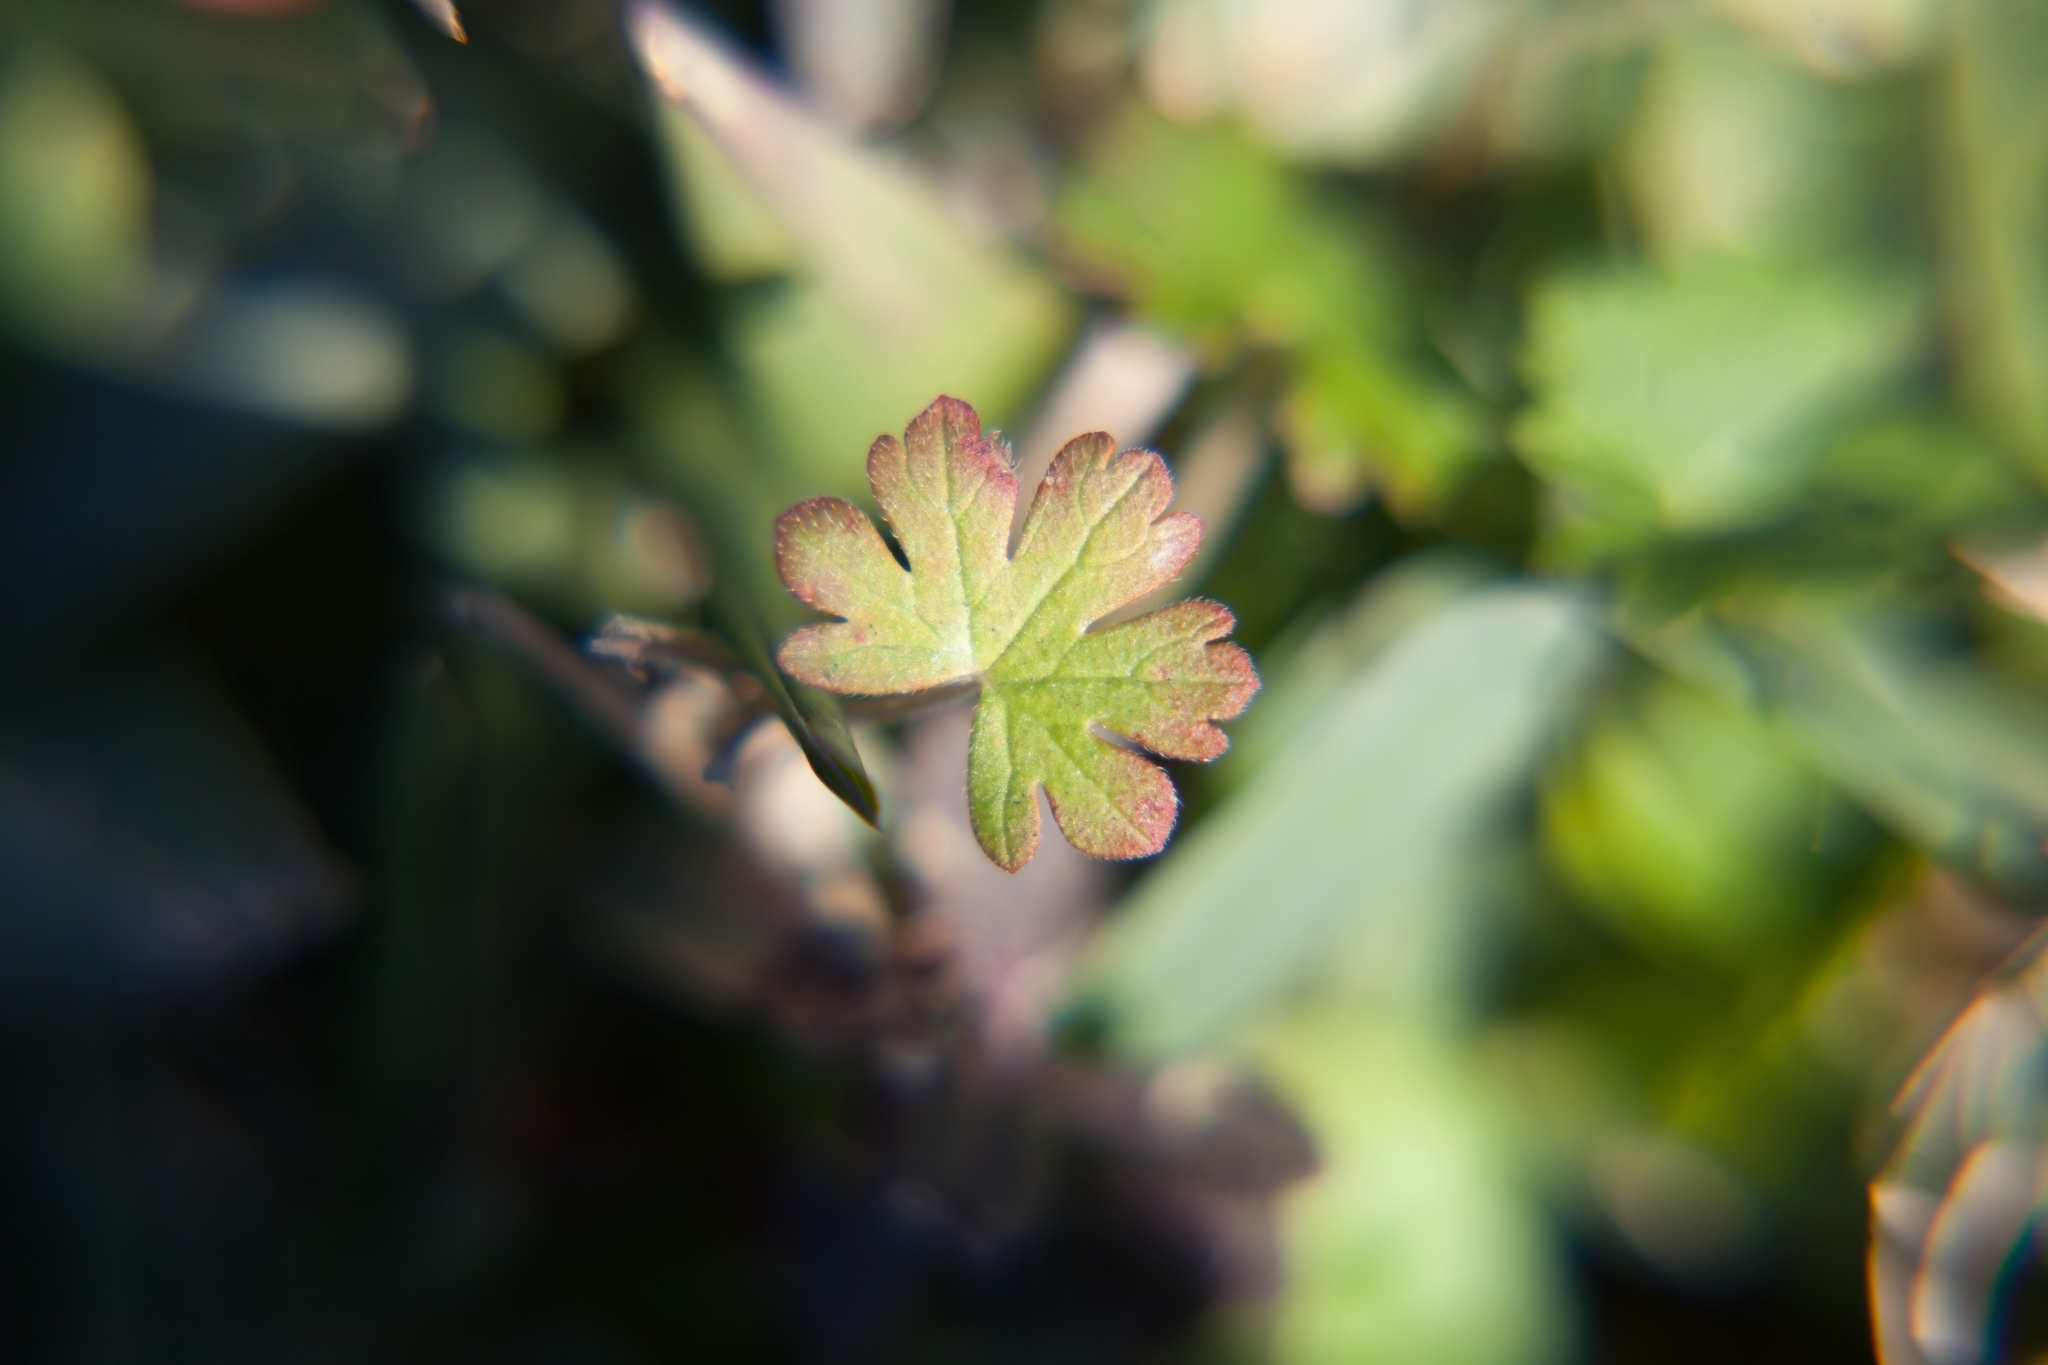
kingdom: Plantae
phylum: Tracheophyta
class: Magnoliopsida
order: Geraniales
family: Geraniaceae
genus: Geranium
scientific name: Geranium carolinianum
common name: Carolina crane's-bill
